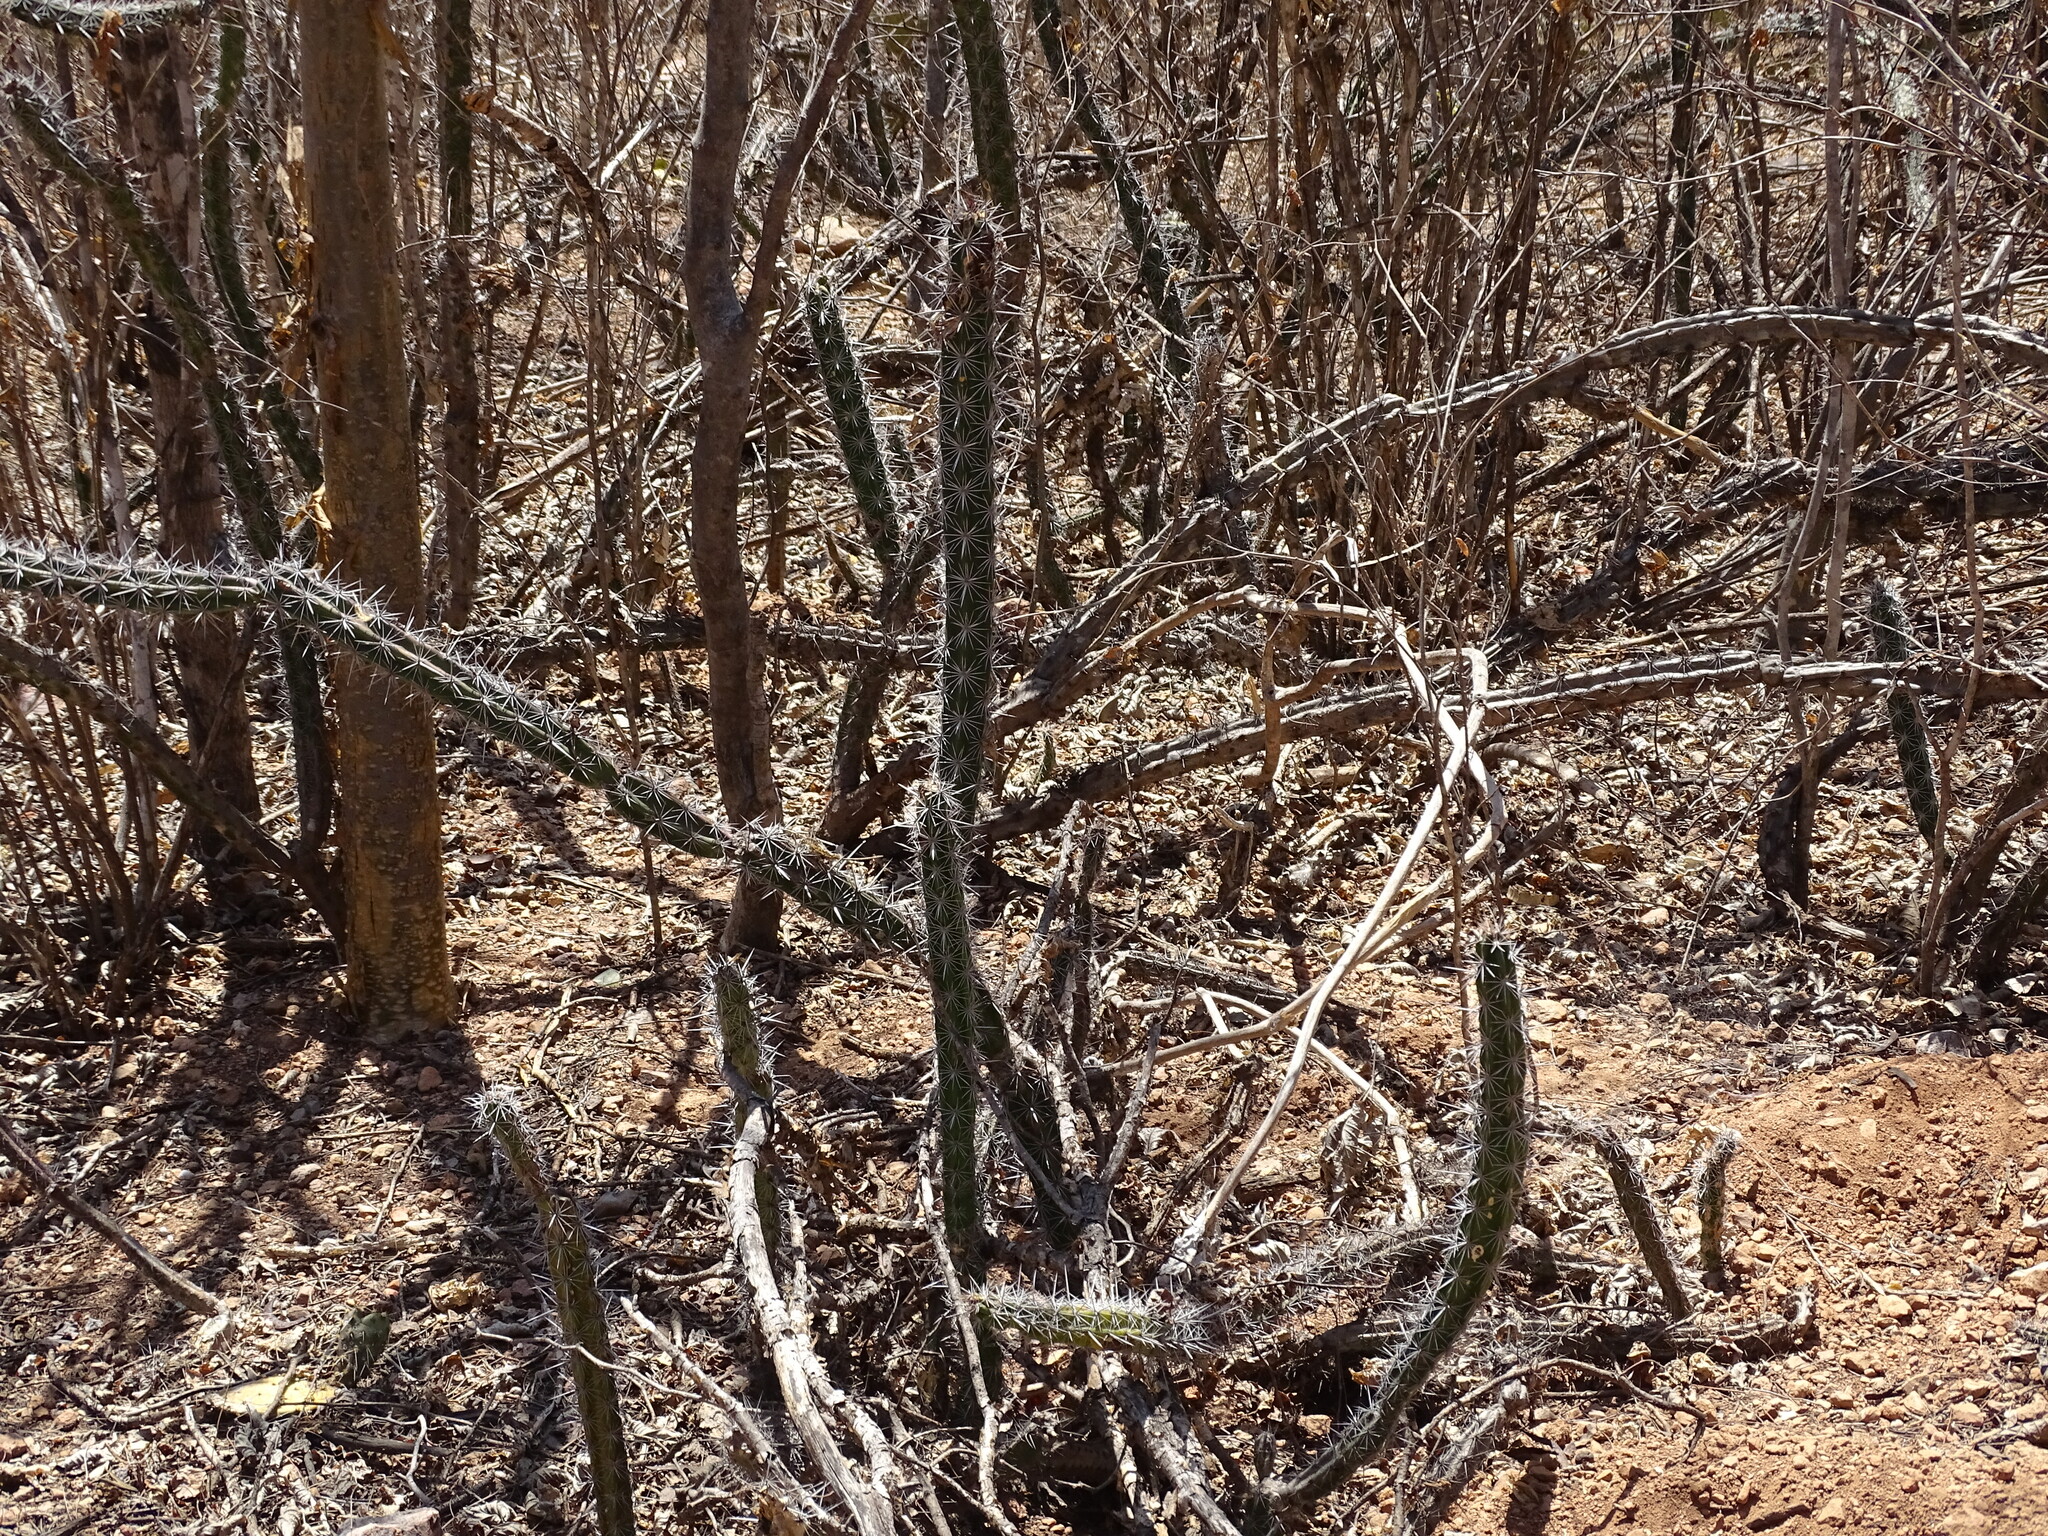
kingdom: Plantae
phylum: Tracheophyta
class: Magnoliopsida
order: Caryophyllales
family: Cactaceae
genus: Stenocereus
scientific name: Stenocereus alamosensis
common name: Octopus cactus
